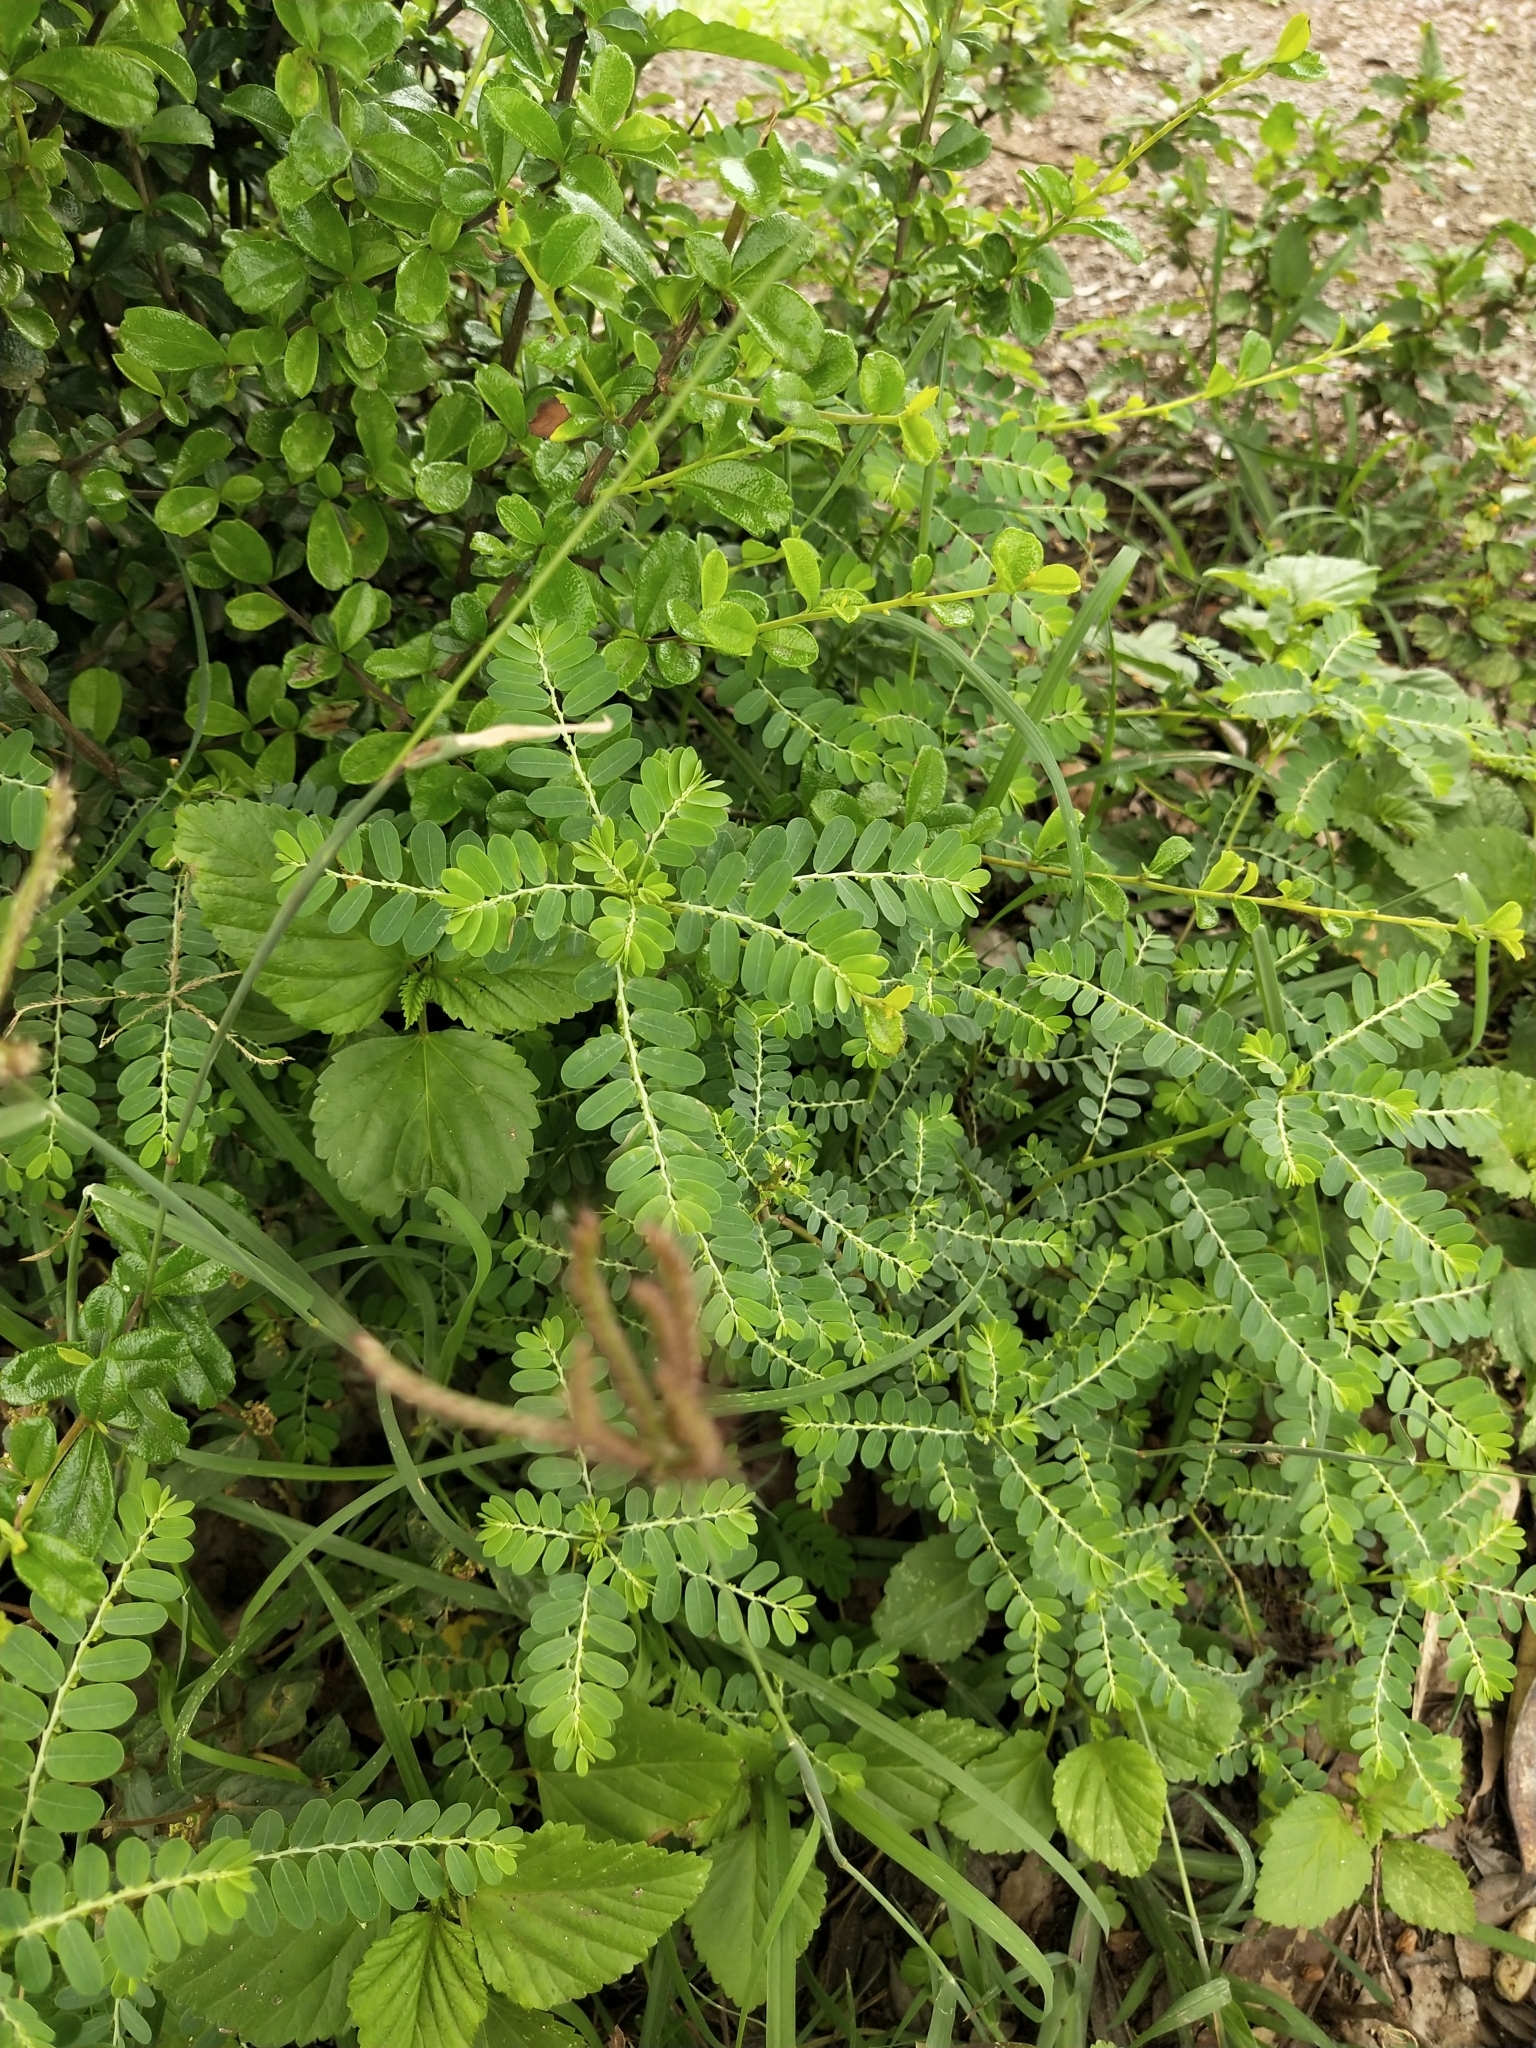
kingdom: Plantae
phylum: Tracheophyta
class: Magnoliopsida
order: Malpighiales
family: Phyllanthaceae
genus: Phyllanthus
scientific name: Phyllanthus urinaria
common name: Chamber bitter
